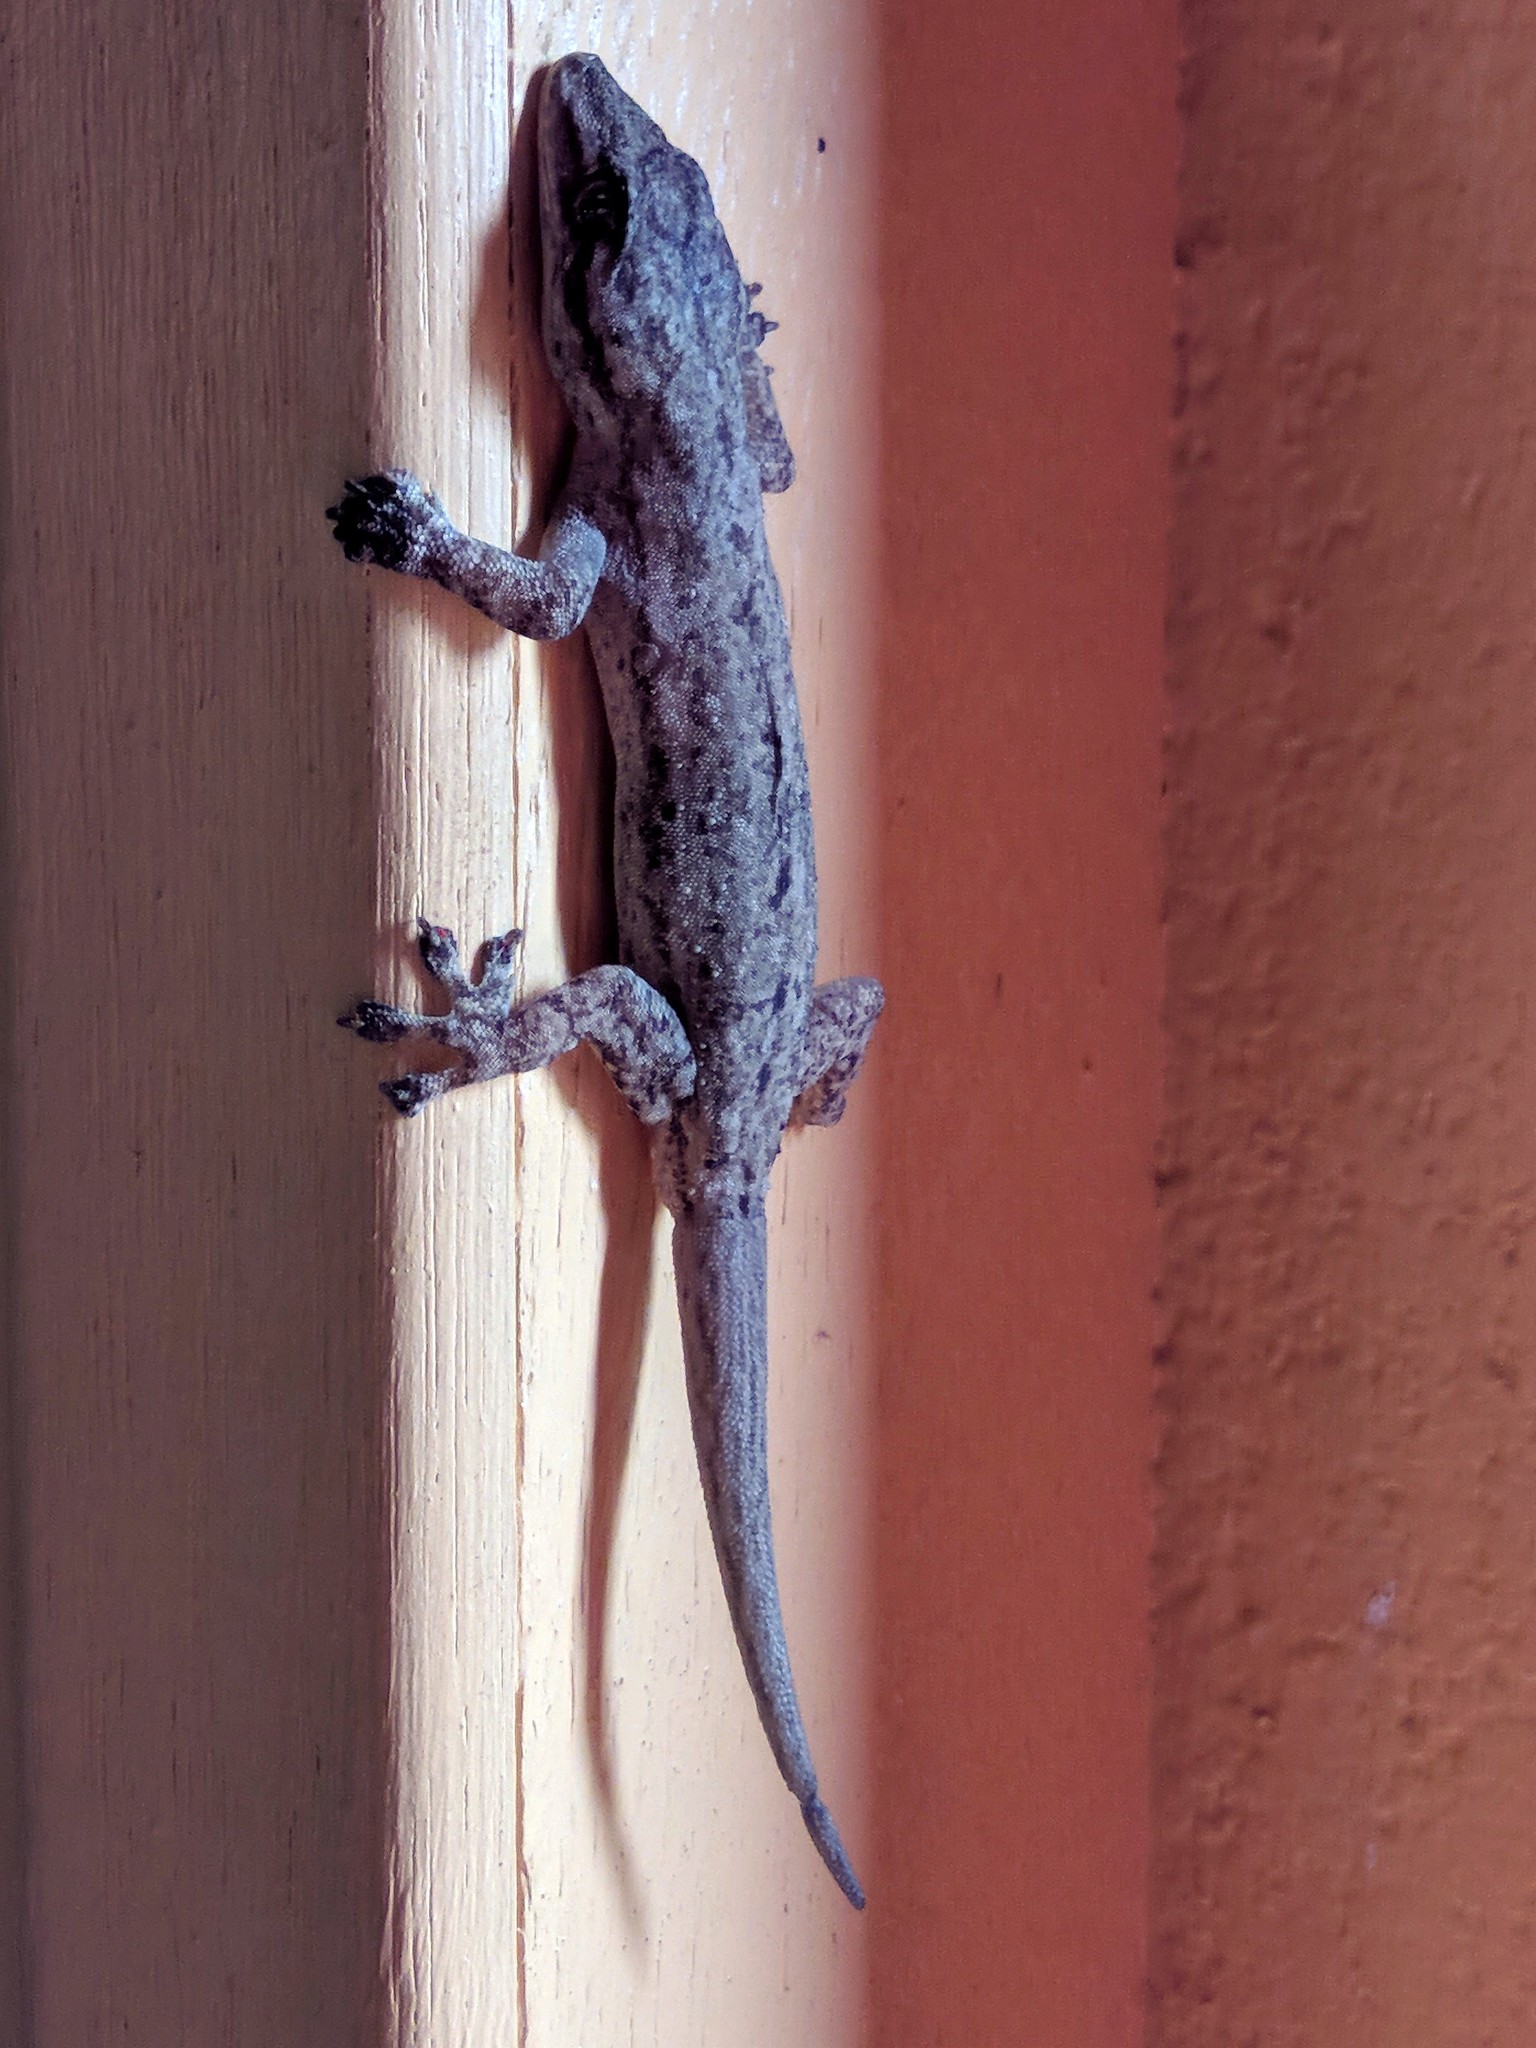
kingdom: Animalia
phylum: Chordata
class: Squamata
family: Gekkonidae
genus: Hemidactylus
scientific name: Hemidactylus frenatus
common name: Common house gecko
